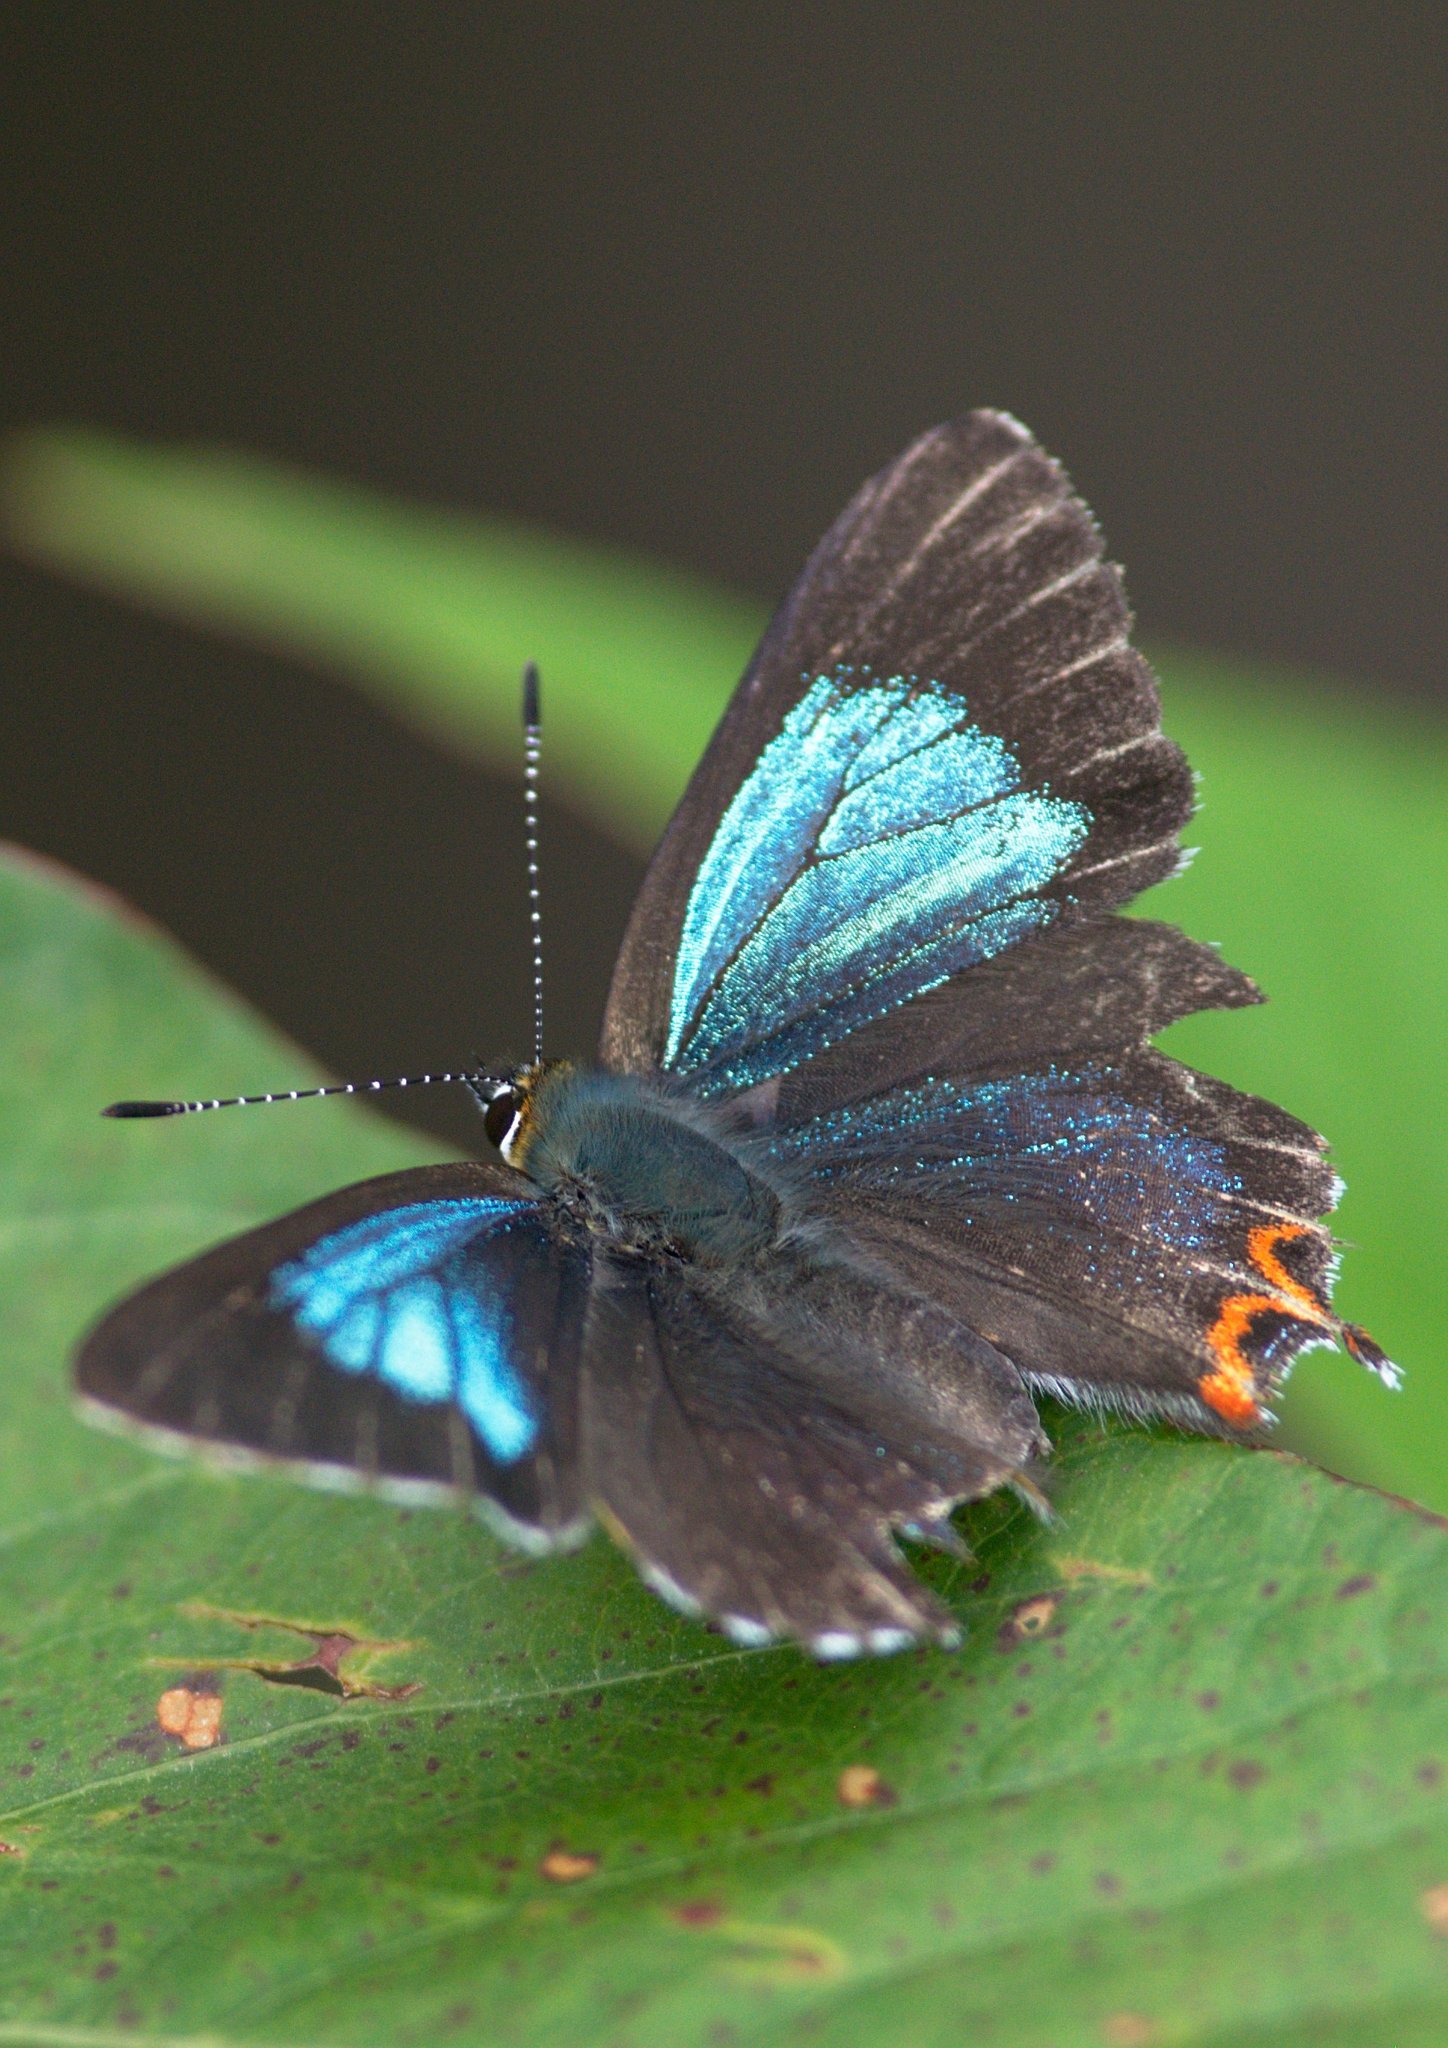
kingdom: Animalia
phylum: Arthropoda
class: Insecta
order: Lepidoptera
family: Lycaenidae
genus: Heliophorus
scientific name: Heliophorus
